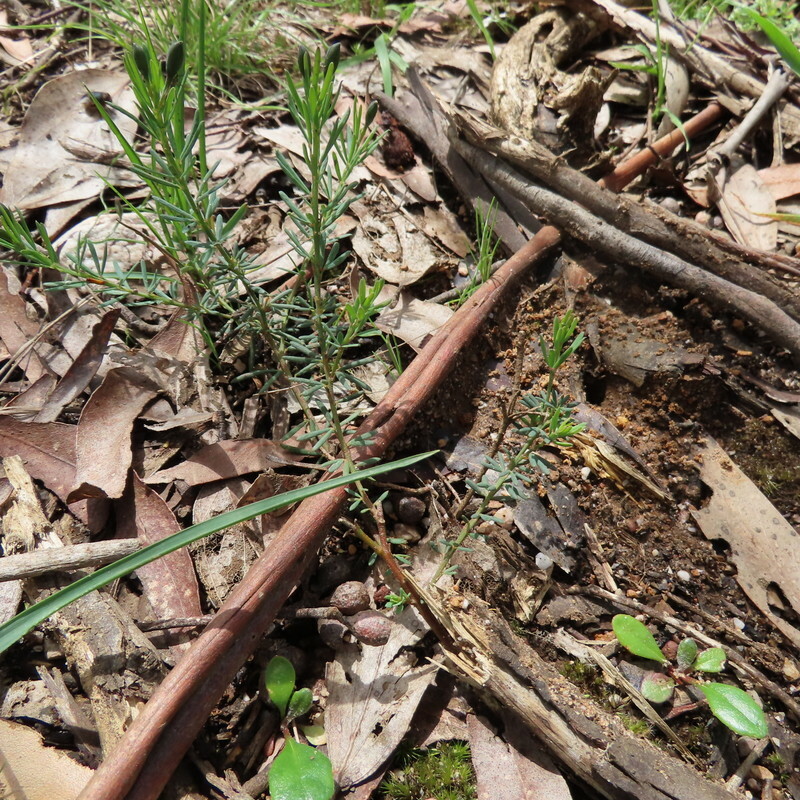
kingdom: Plantae
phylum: Tracheophyta
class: Magnoliopsida
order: Fabales
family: Fabaceae
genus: Gompholobium
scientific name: Gompholobium huegelii
